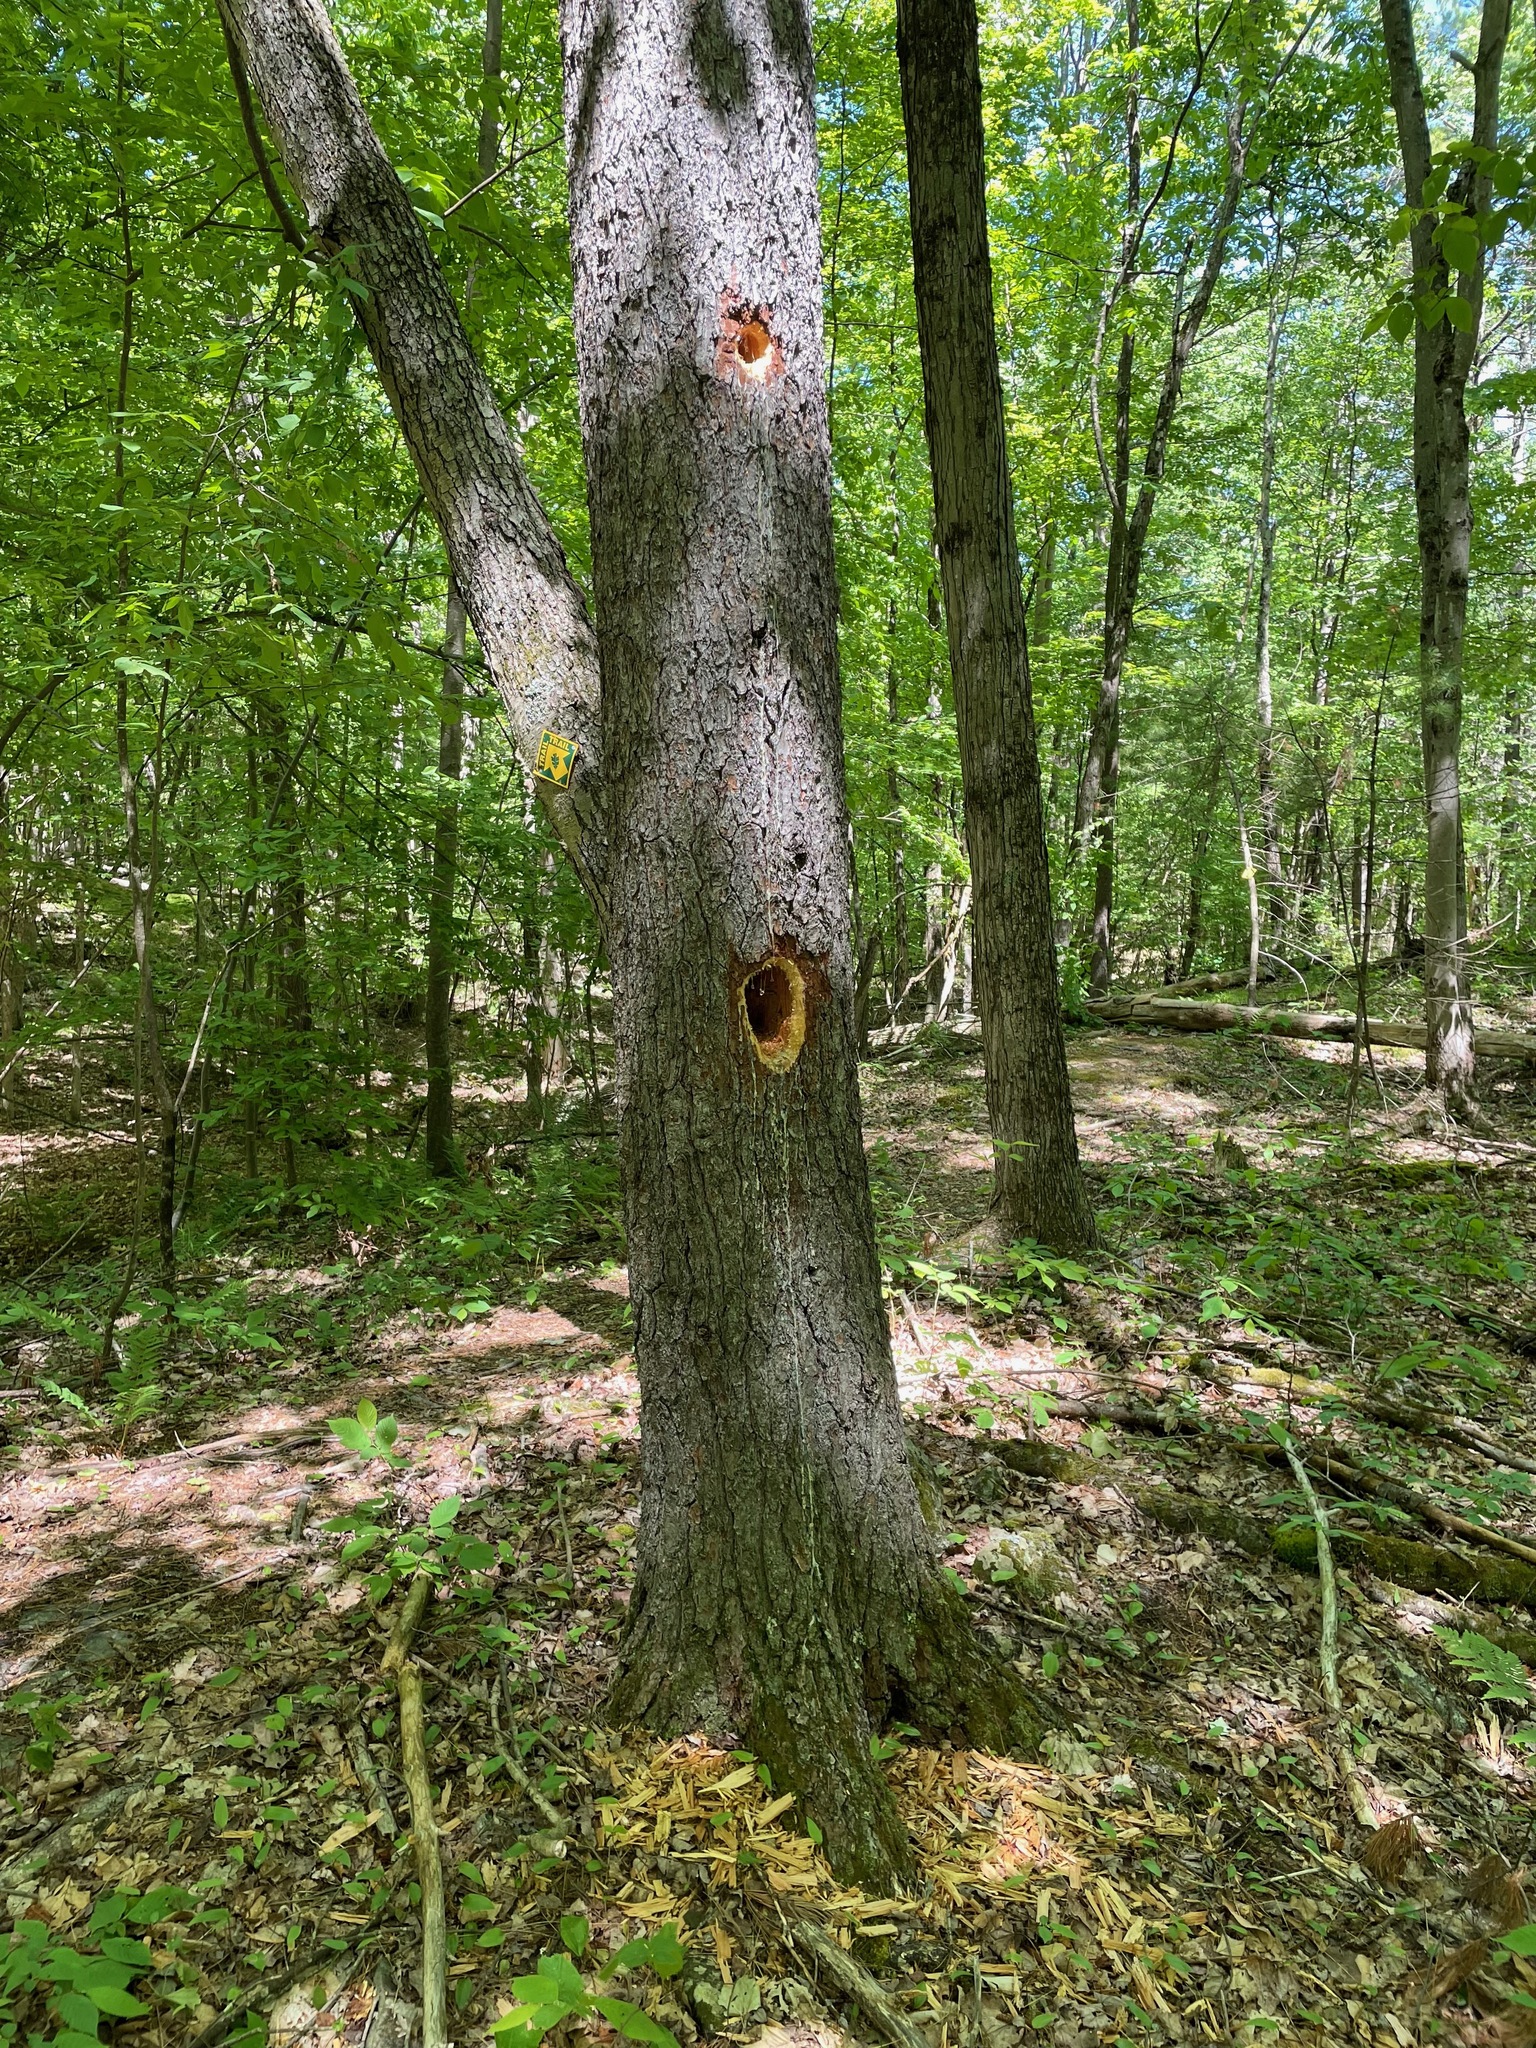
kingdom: Animalia
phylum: Chordata
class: Aves
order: Piciformes
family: Picidae
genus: Dryocopus
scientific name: Dryocopus pileatus
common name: Pileated woodpecker
